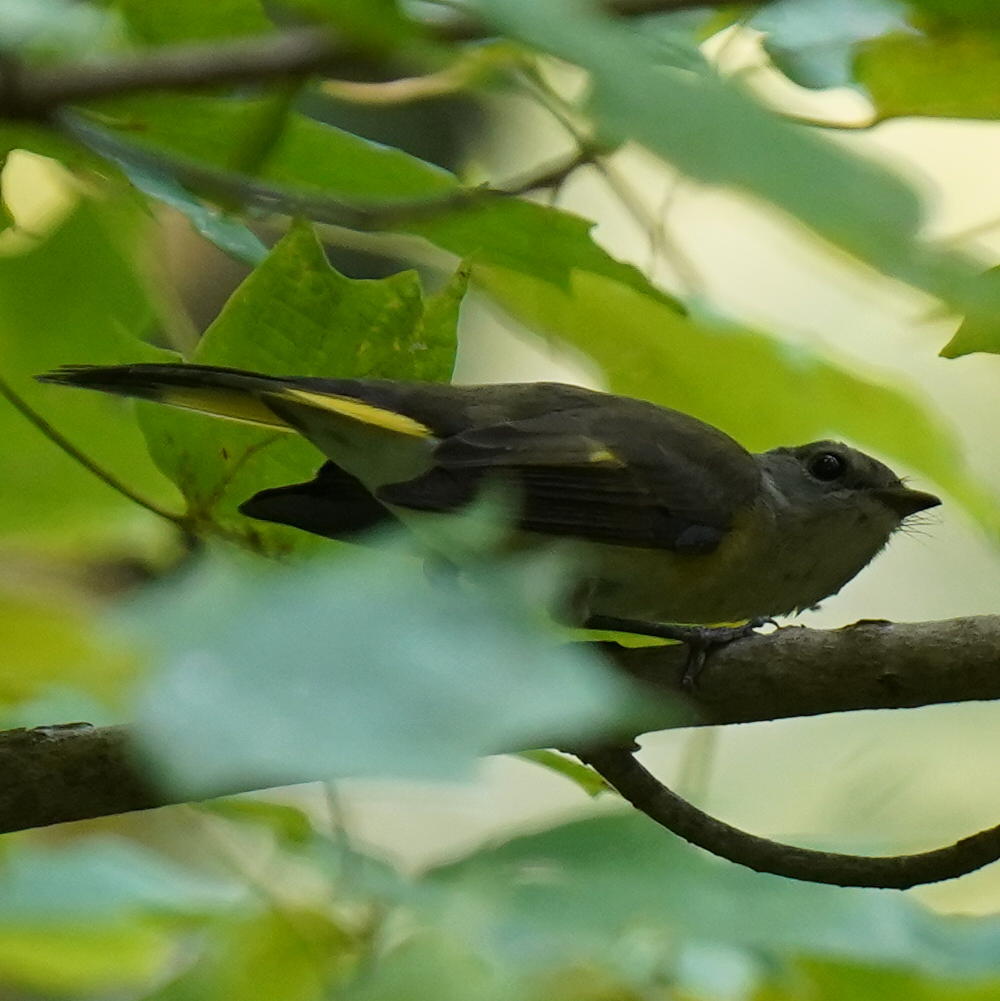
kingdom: Animalia
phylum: Chordata
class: Aves
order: Passeriformes
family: Parulidae
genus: Setophaga
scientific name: Setophaga ruticilla
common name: American redstart
